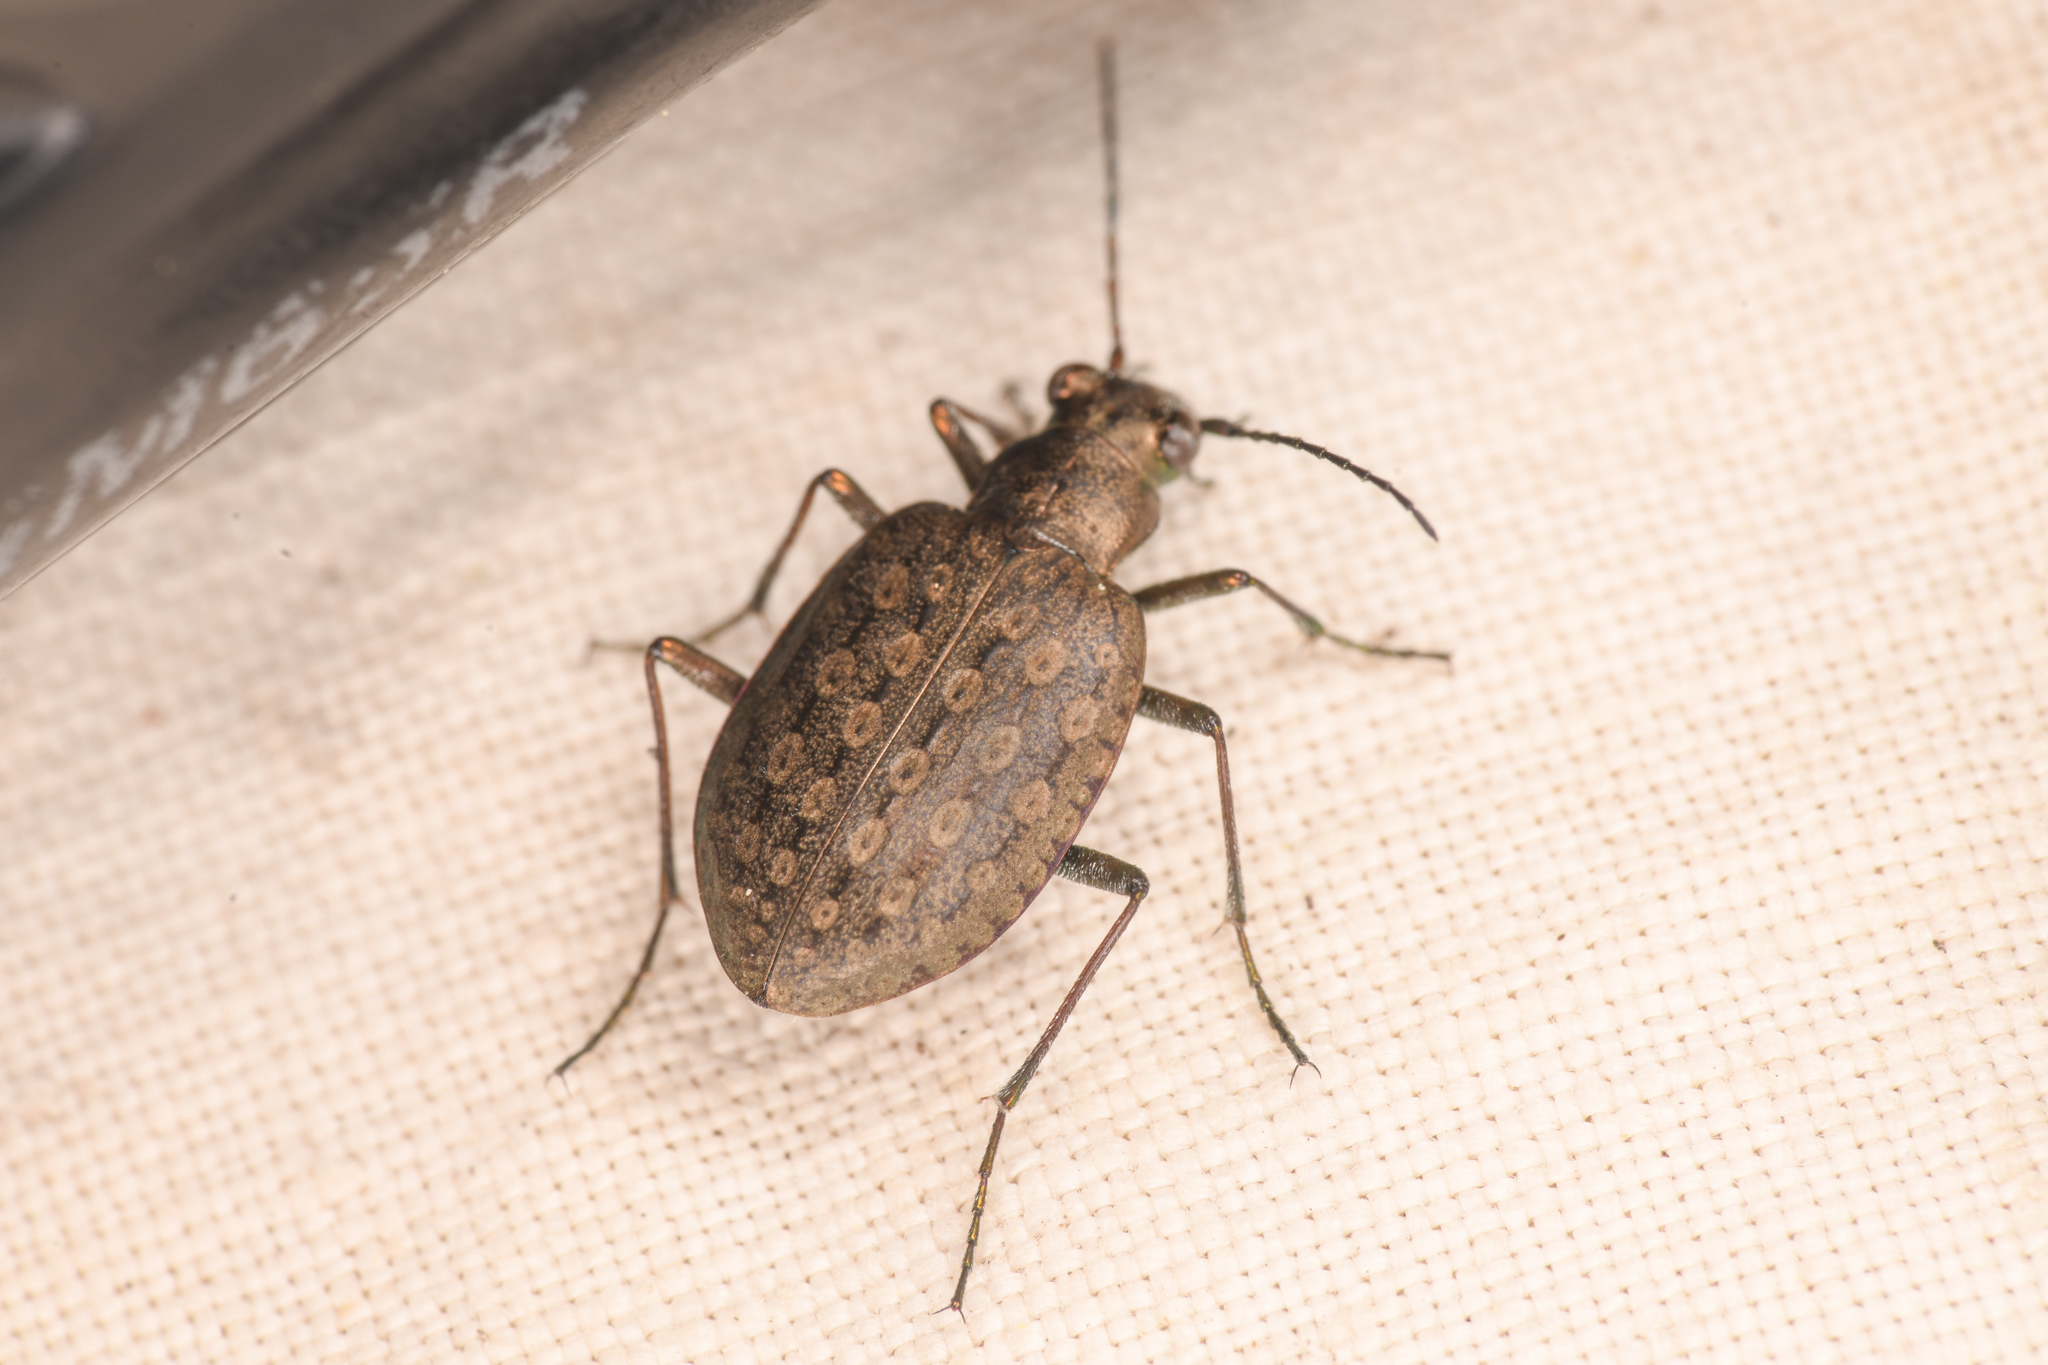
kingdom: Animalia
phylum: Arthropoda
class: Insecta
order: Coleoptera
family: Carabidae
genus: Opisthius
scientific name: Opisthius richardsoni
